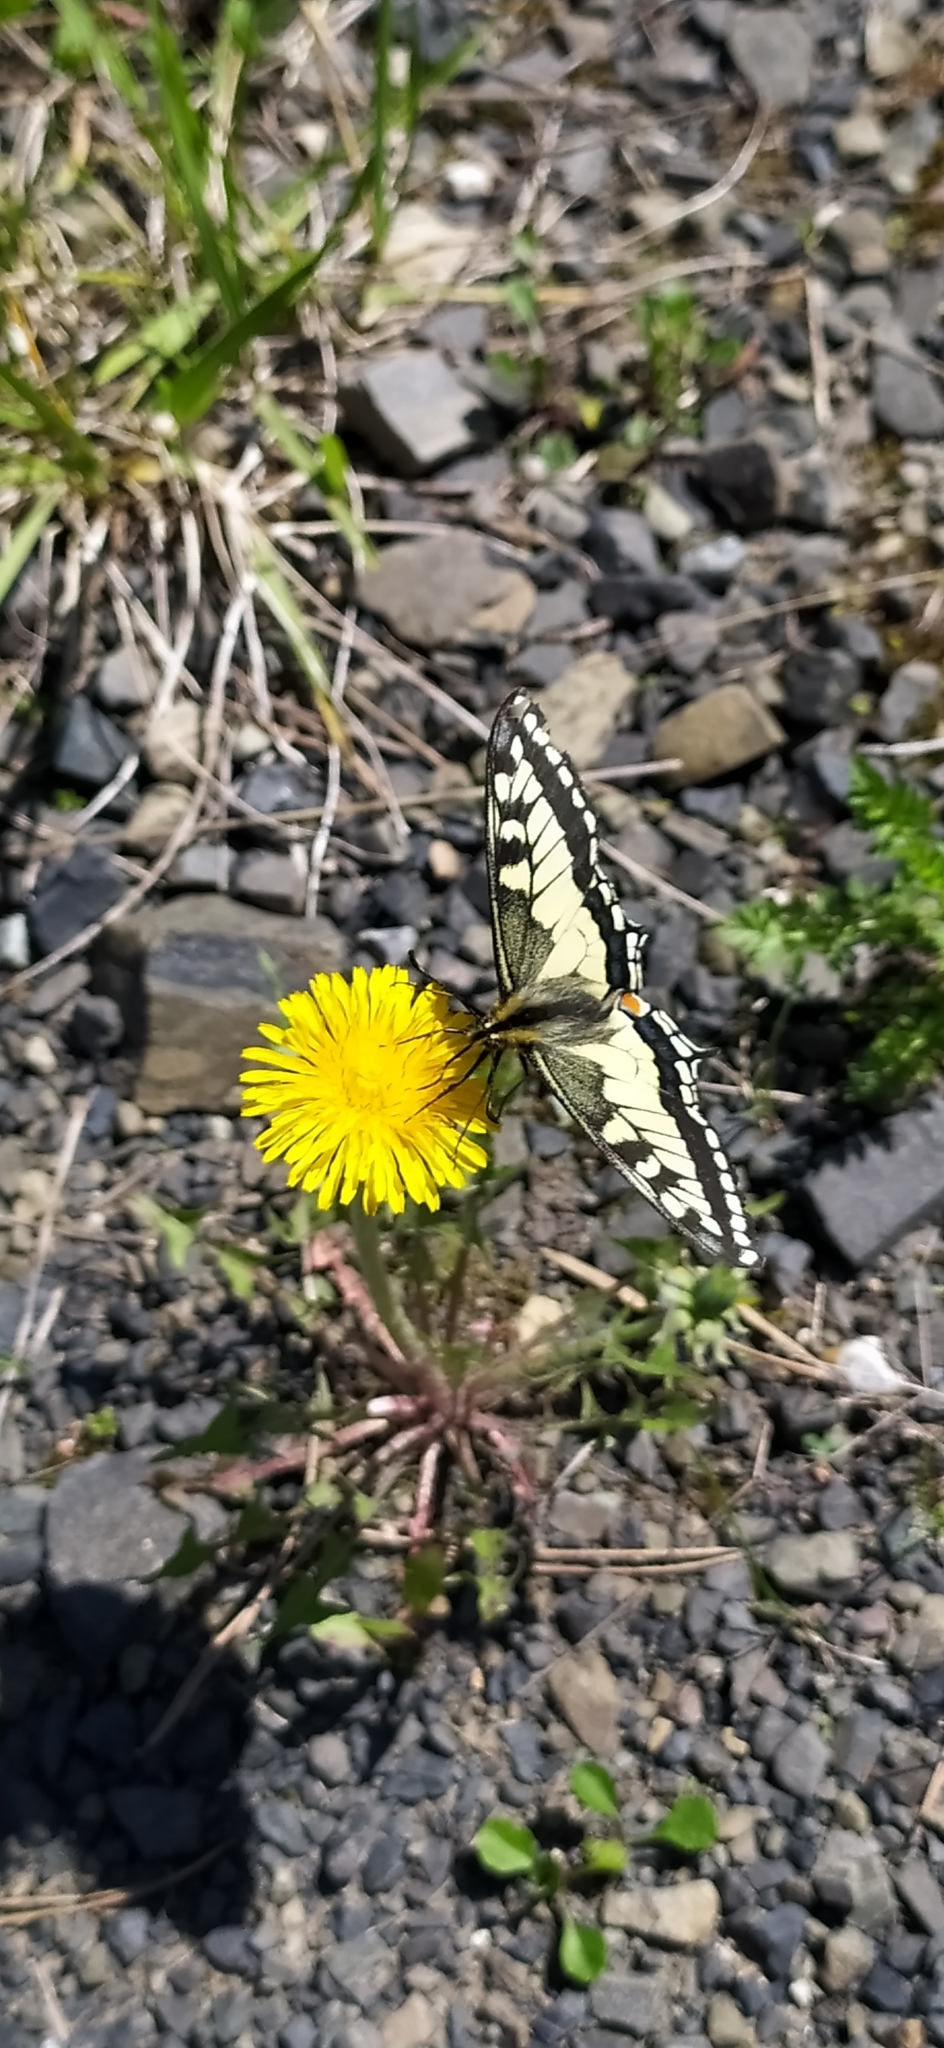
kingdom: Animalia
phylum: Arthropoda
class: Insecta
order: Lepidoptera
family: Papilionidae
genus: Papilio
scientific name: Papilio machaon
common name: Swallowtail
